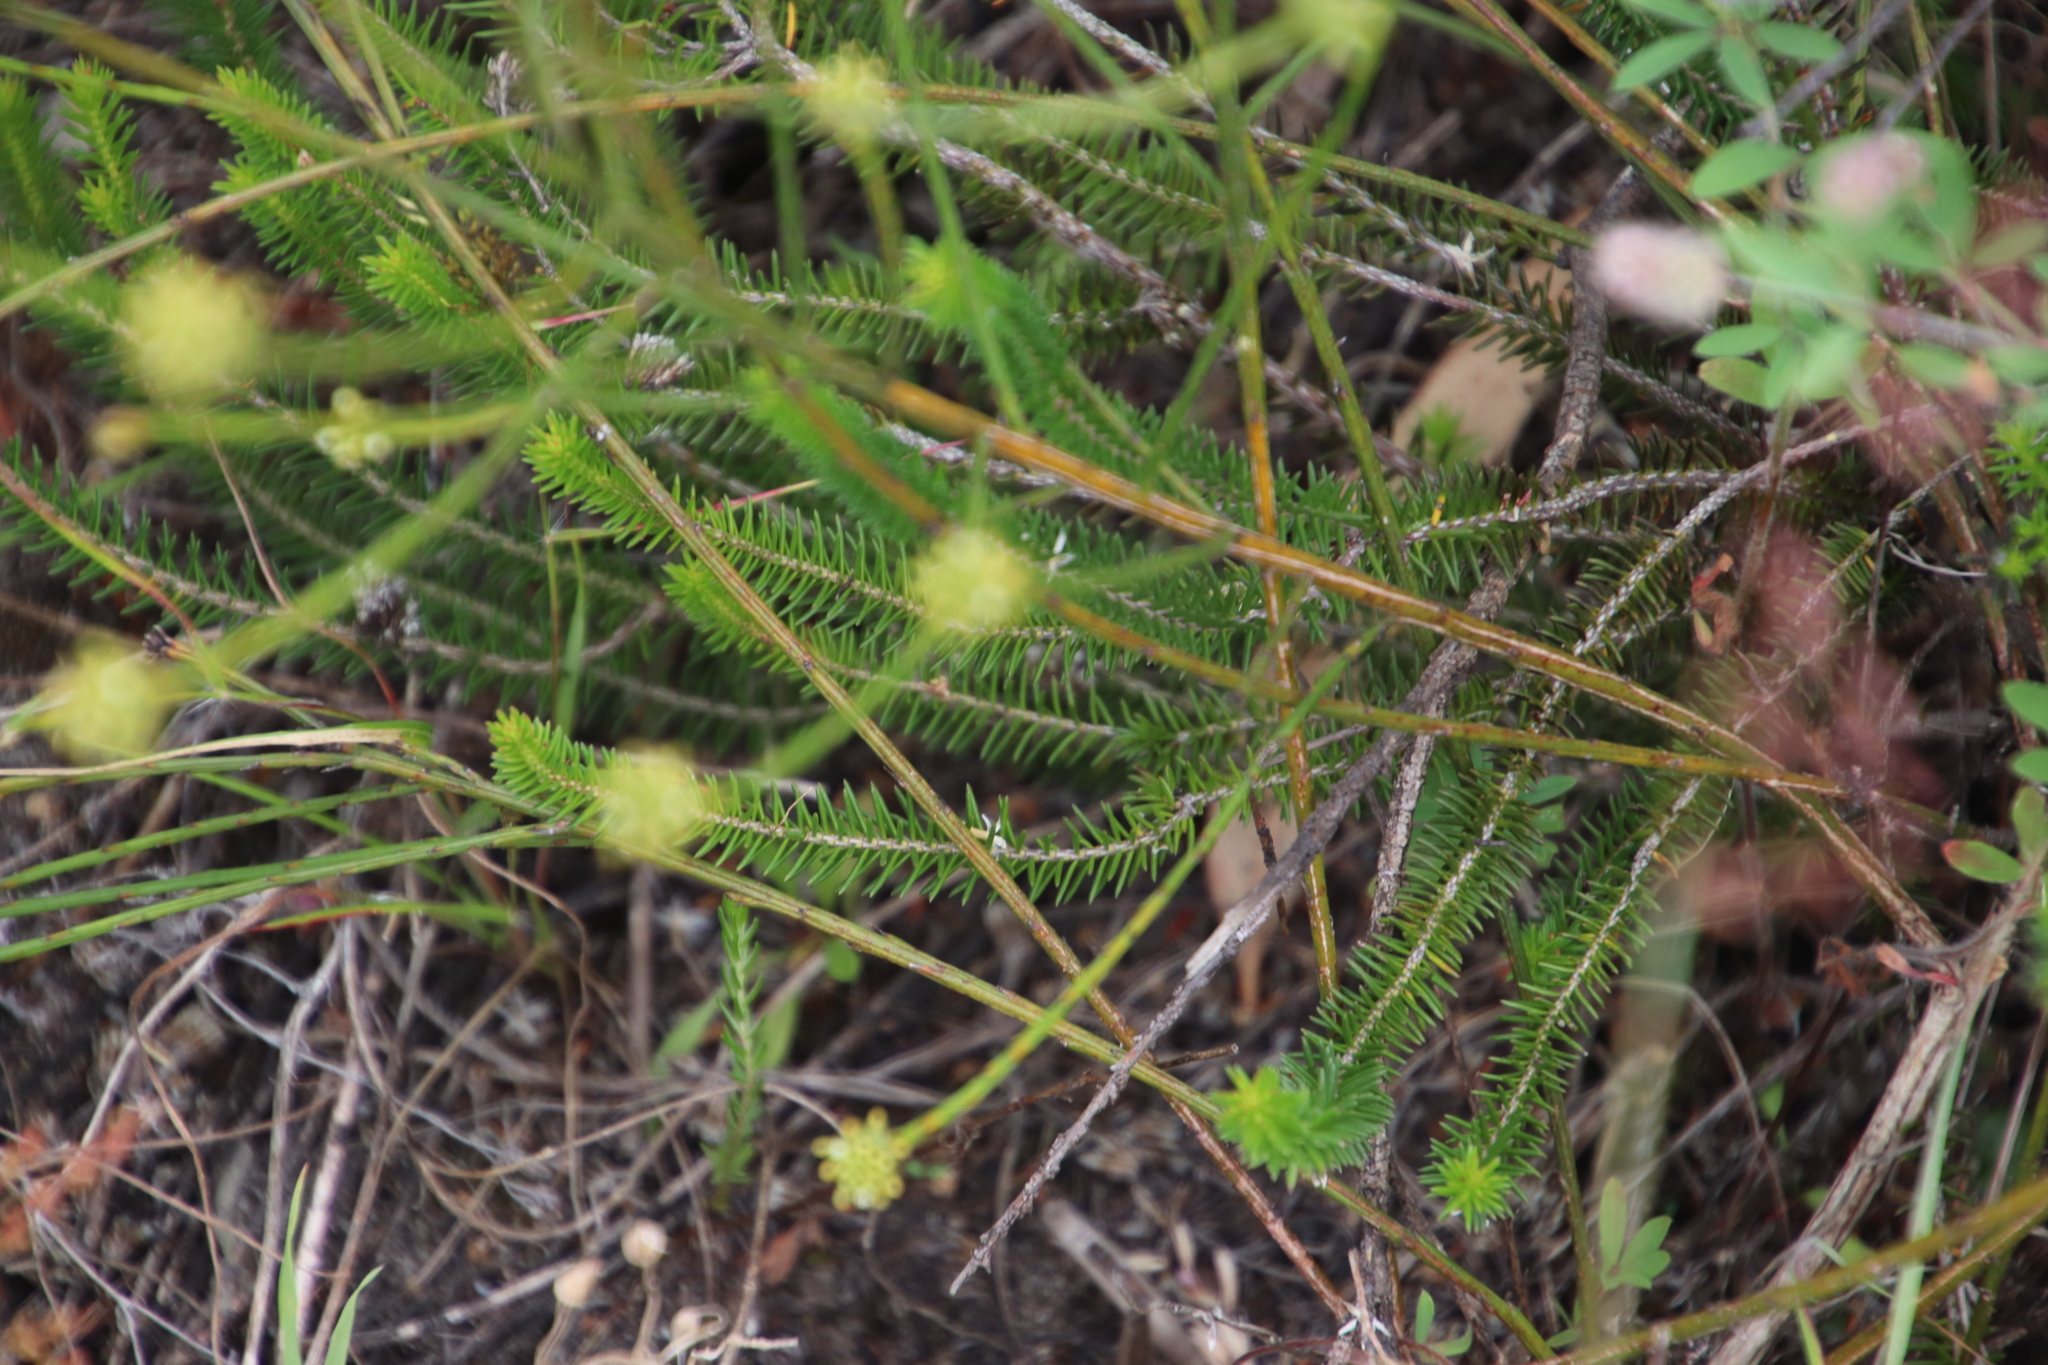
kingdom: Plantae
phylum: Tracheophyta
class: Magnoliopsida
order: Ericales
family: Ericaceae
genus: Erica
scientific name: Erica mammosa
